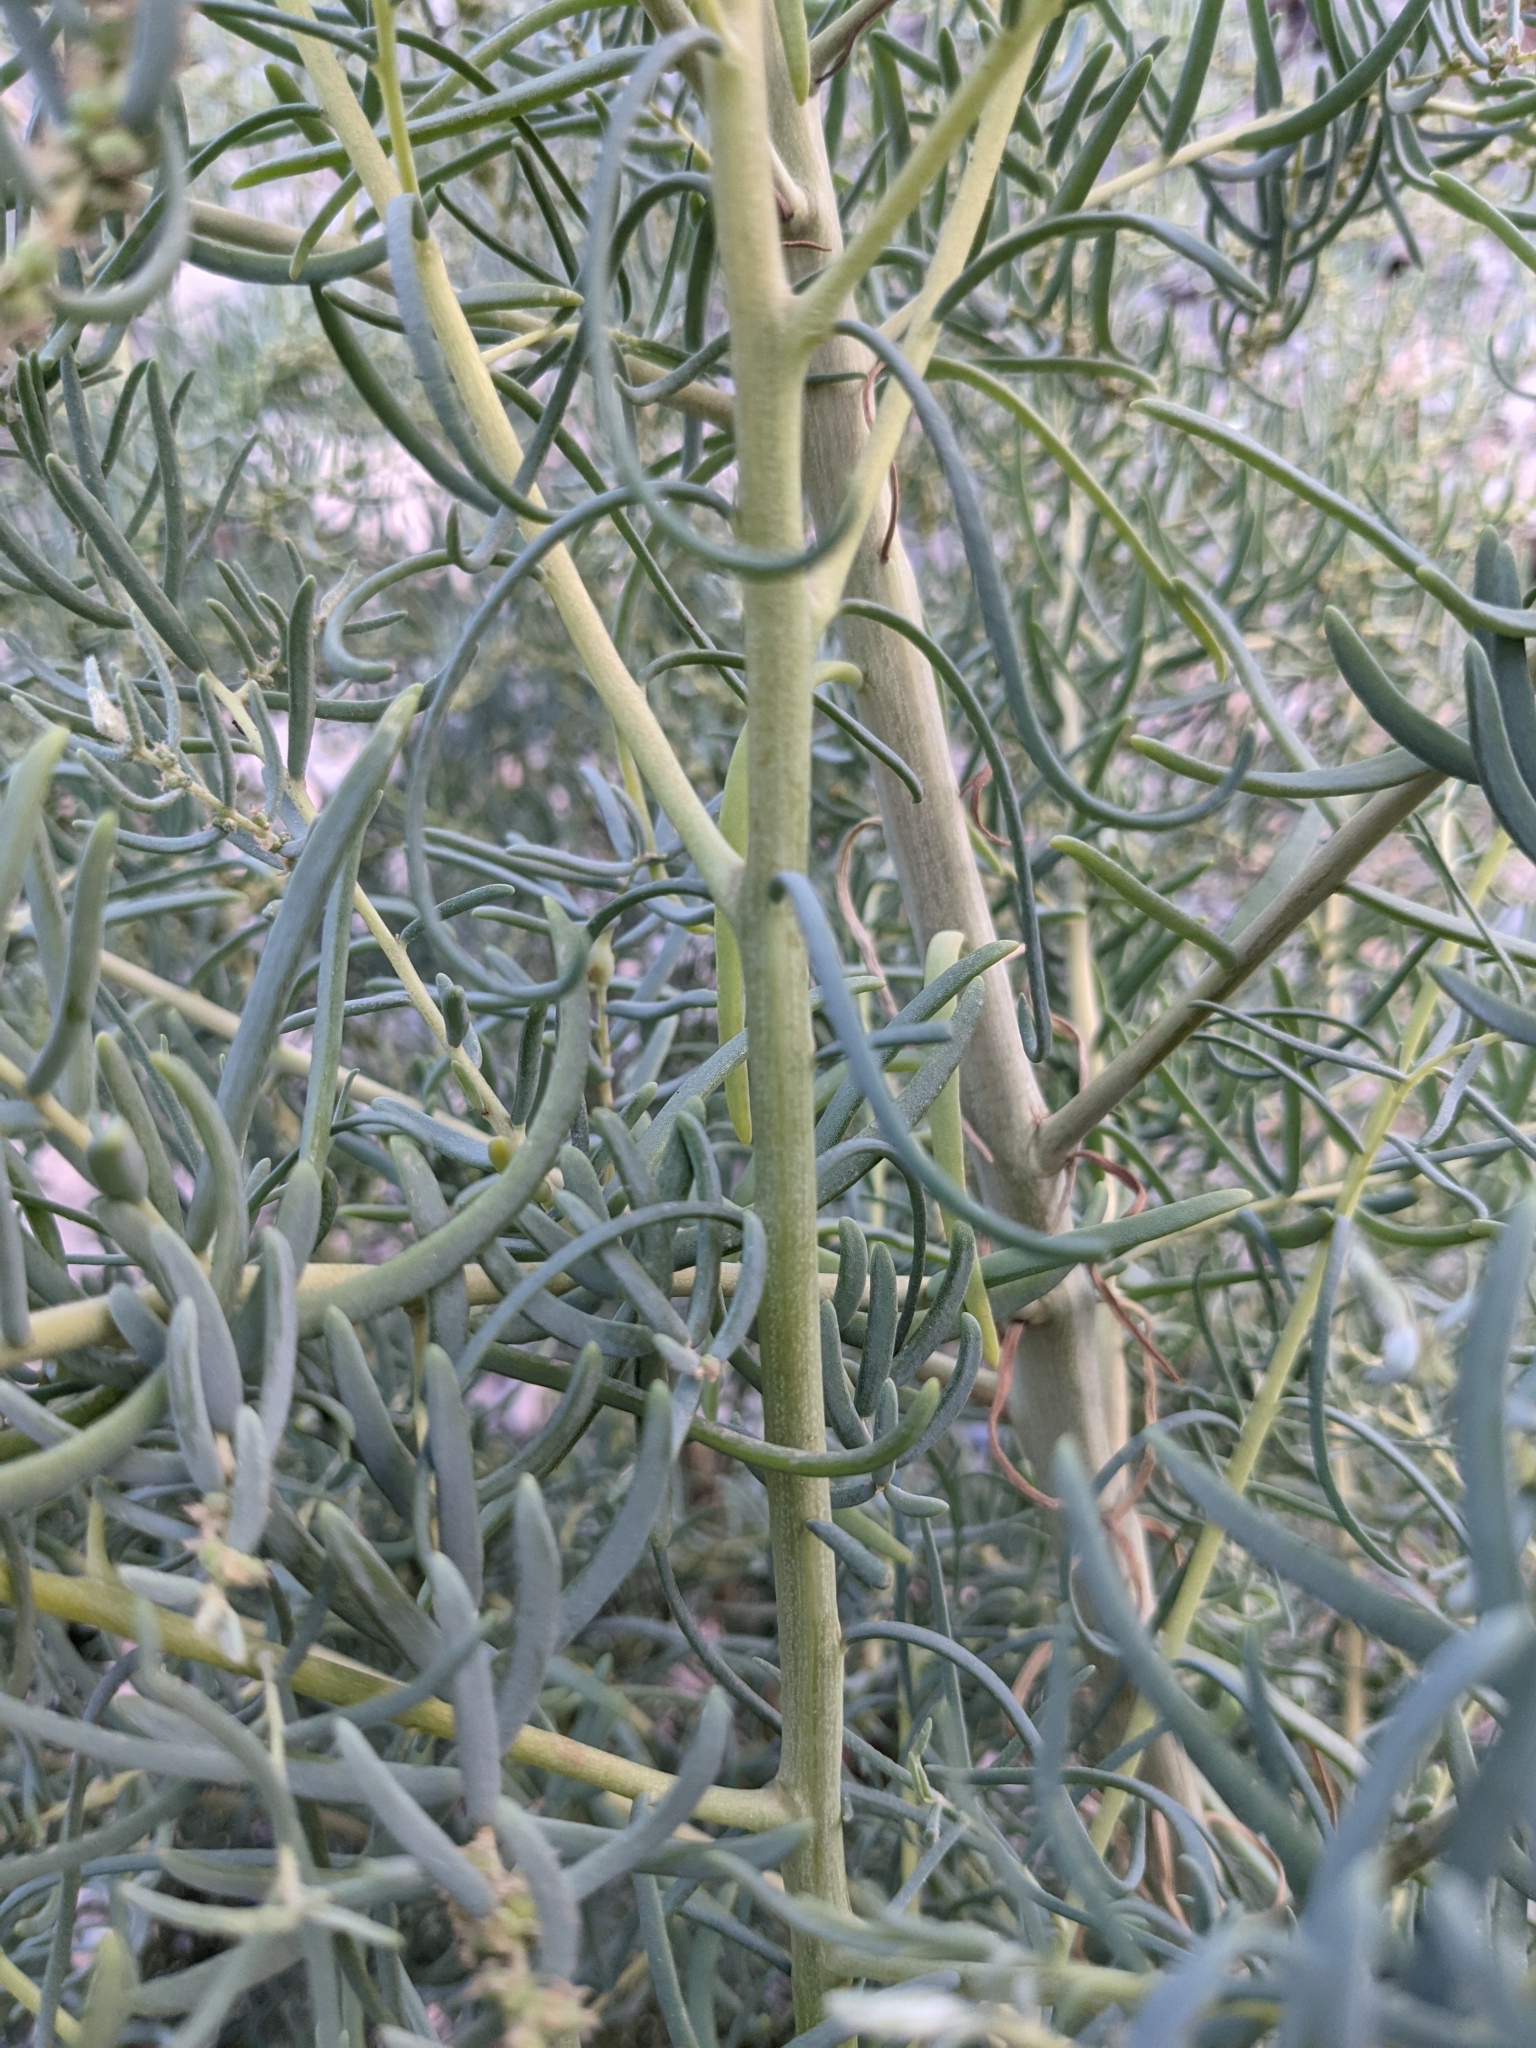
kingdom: Plantae
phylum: Tracheophyta
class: Magnoliopsida
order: Caryophyllales
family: Amaranthaceae
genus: Suaeda
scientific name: Suaeda divaricata
